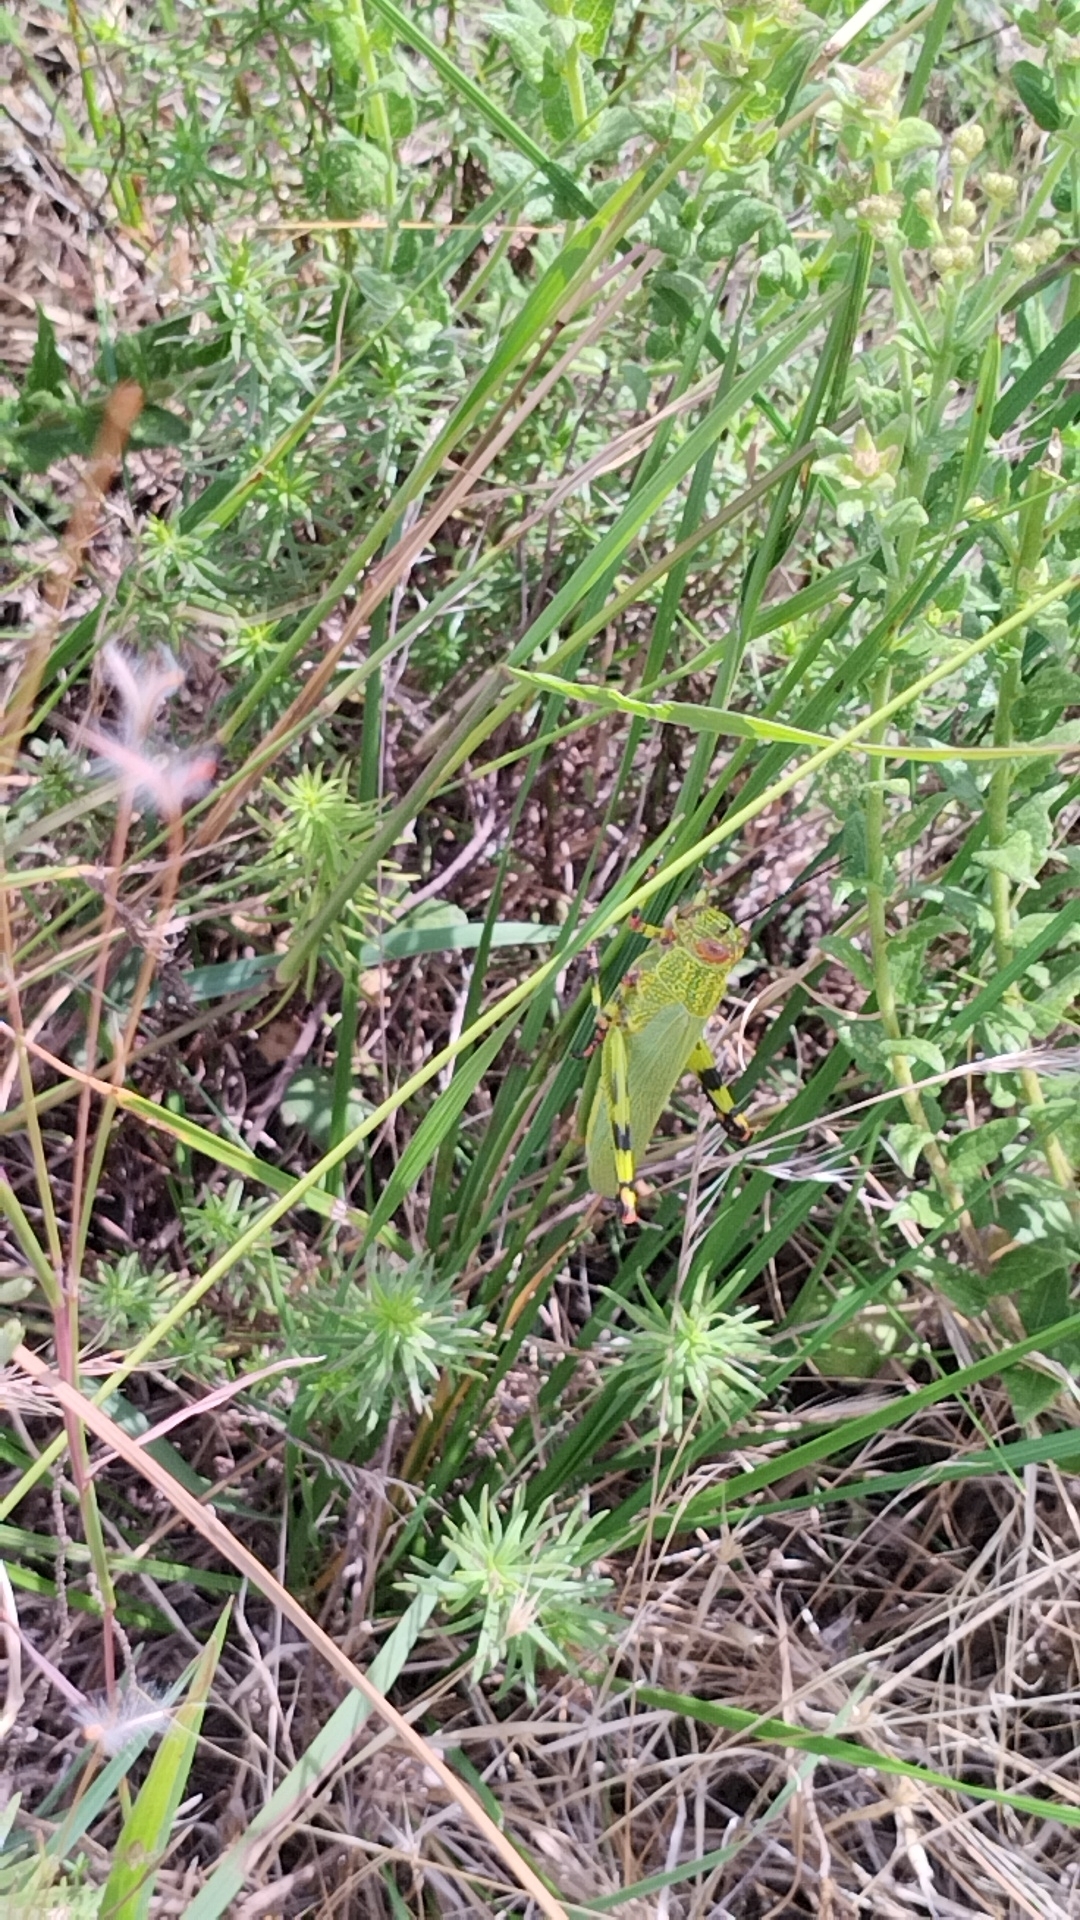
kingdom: Animalia
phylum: Arthropoda
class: Insecta
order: Orthoptera
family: Romaleidae
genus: Zoniopoda
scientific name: Zoniopoda tarsata
